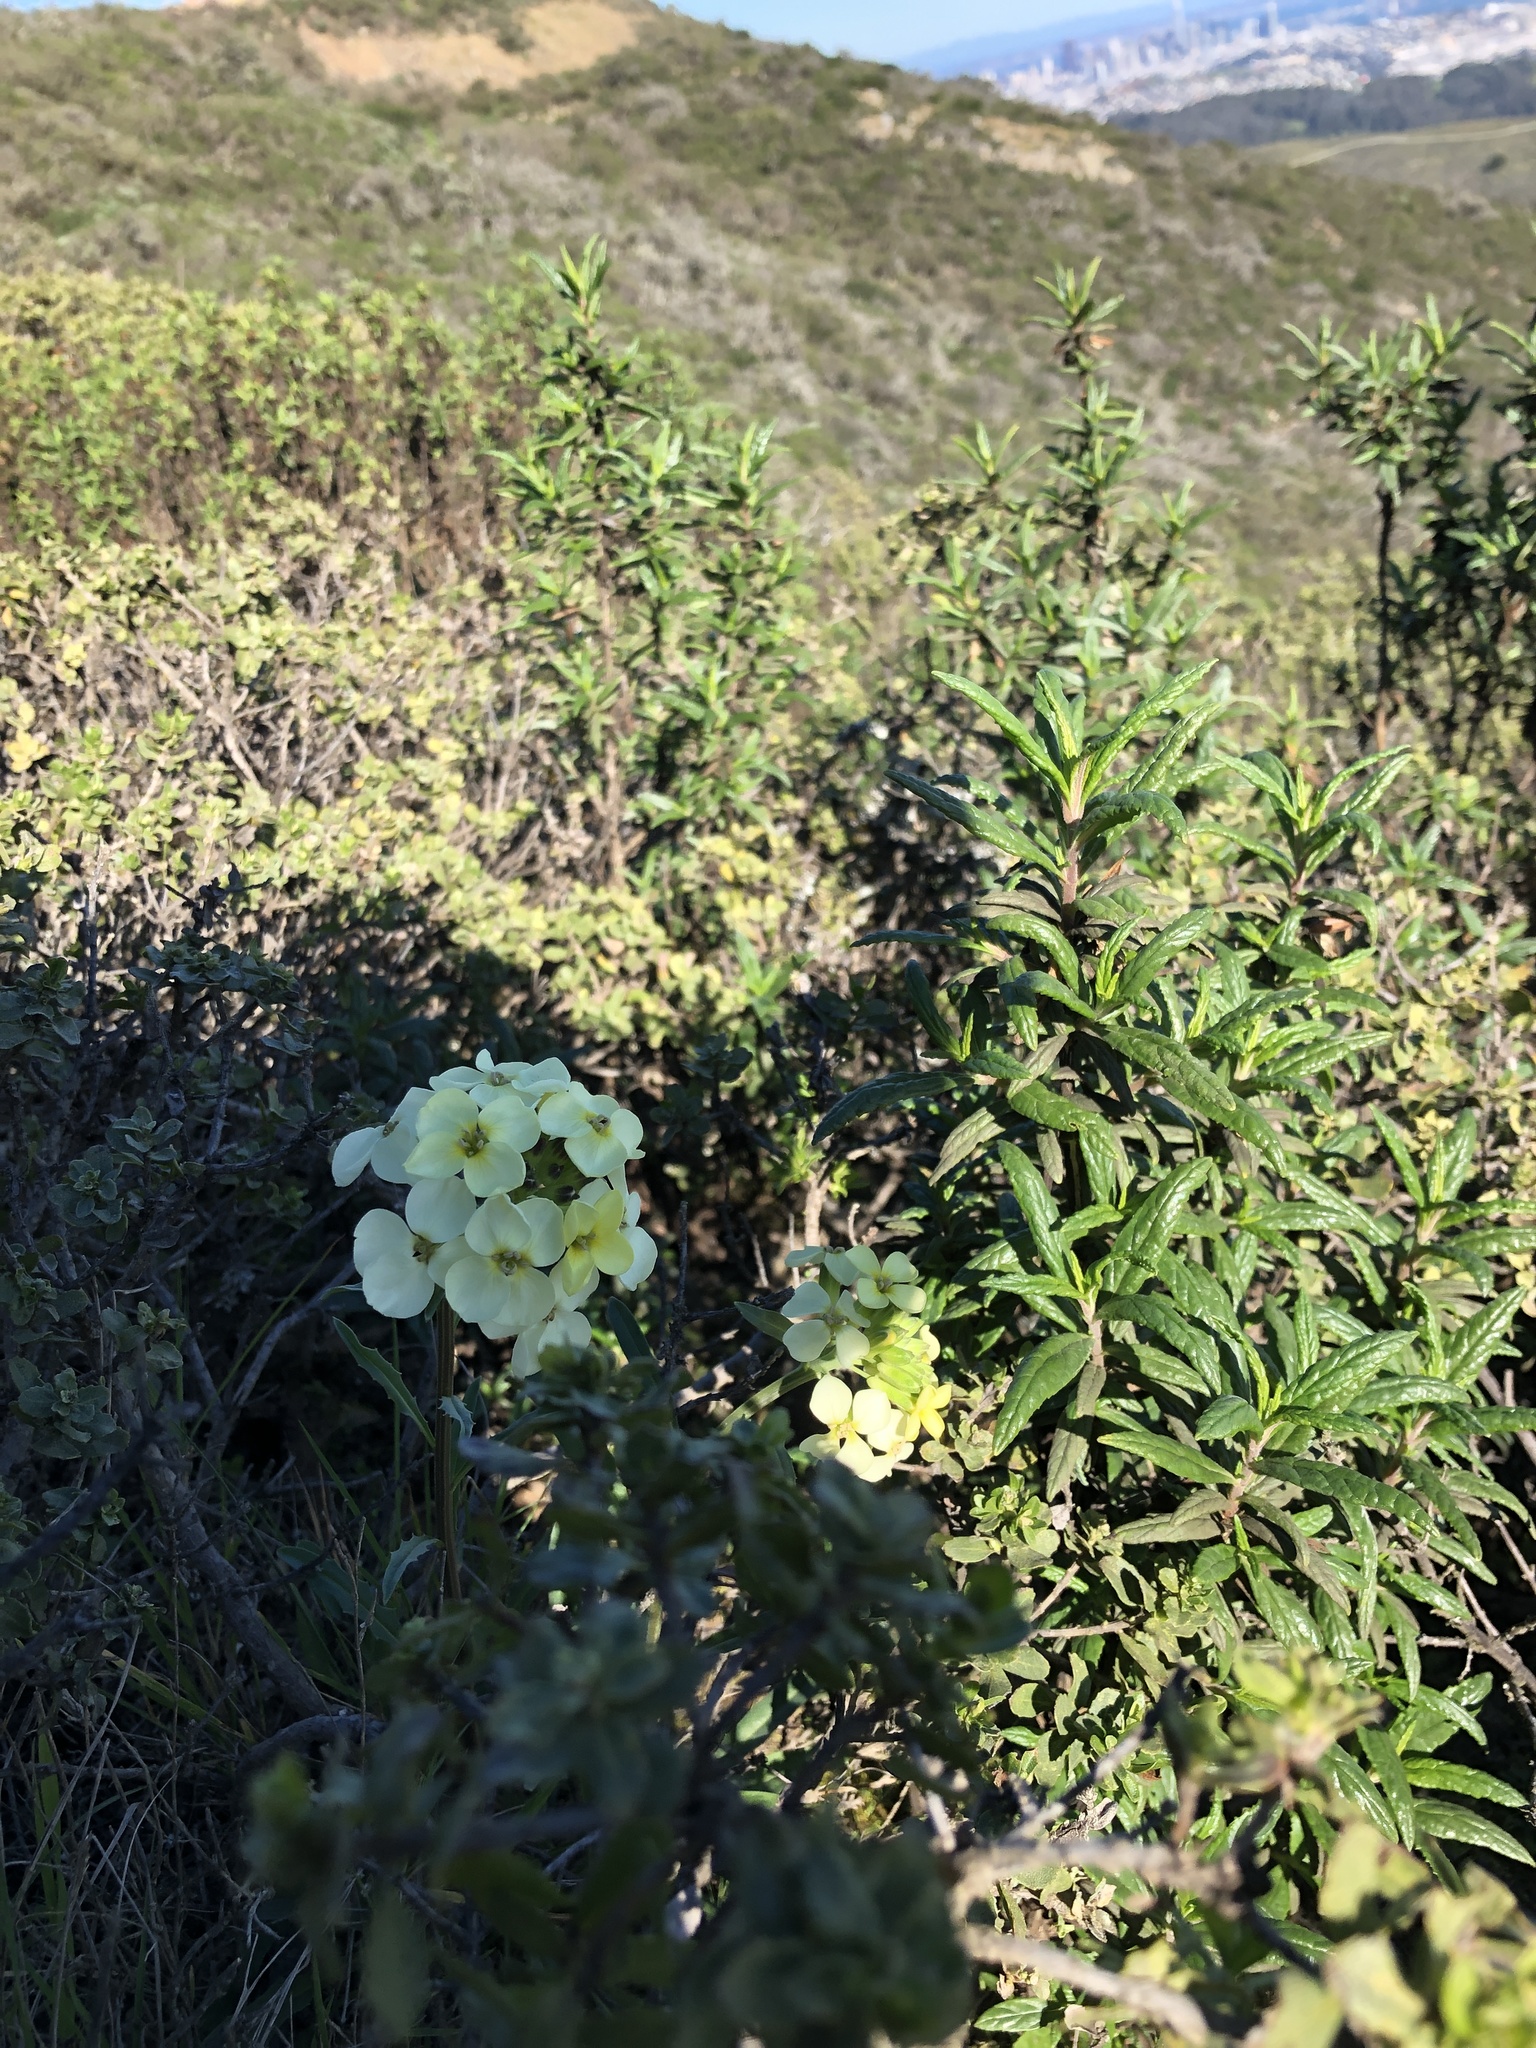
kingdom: Plantae
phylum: Tracheophyta
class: Magnoliopsida
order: Brassicales
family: Brassicaceae
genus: Erysimum
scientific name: Erysimum franciscanum
